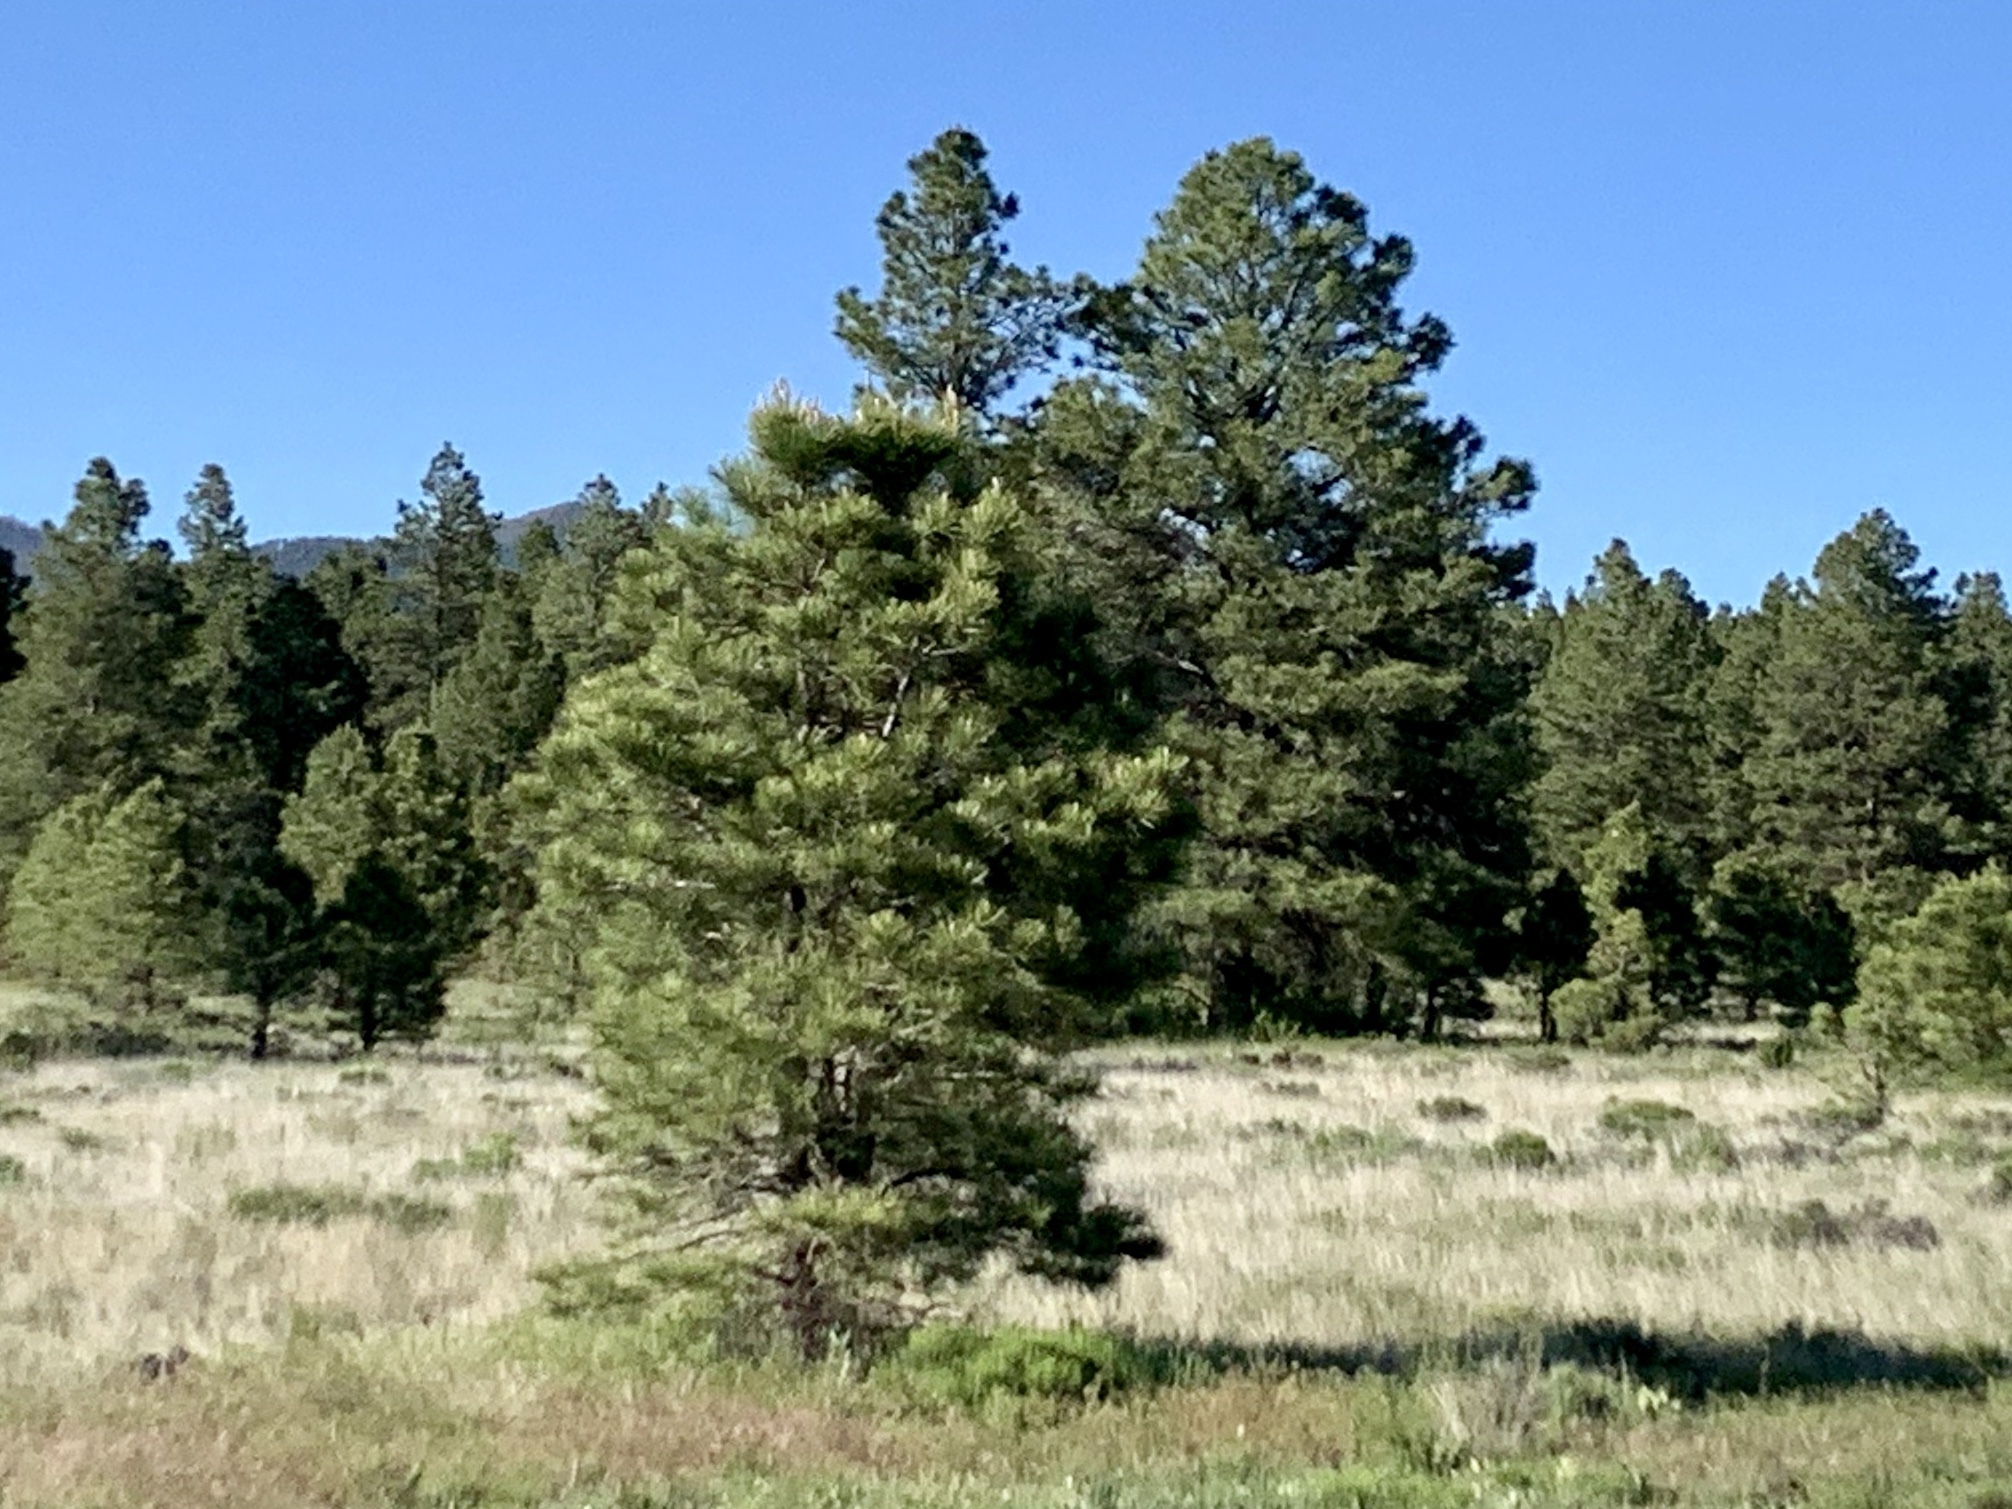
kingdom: Plantae
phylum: Tracheophyta
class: Pinopsida
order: Pinales
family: Pinaceae
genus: Pinus
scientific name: Pinus ponderosa
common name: Western yellow-pine
